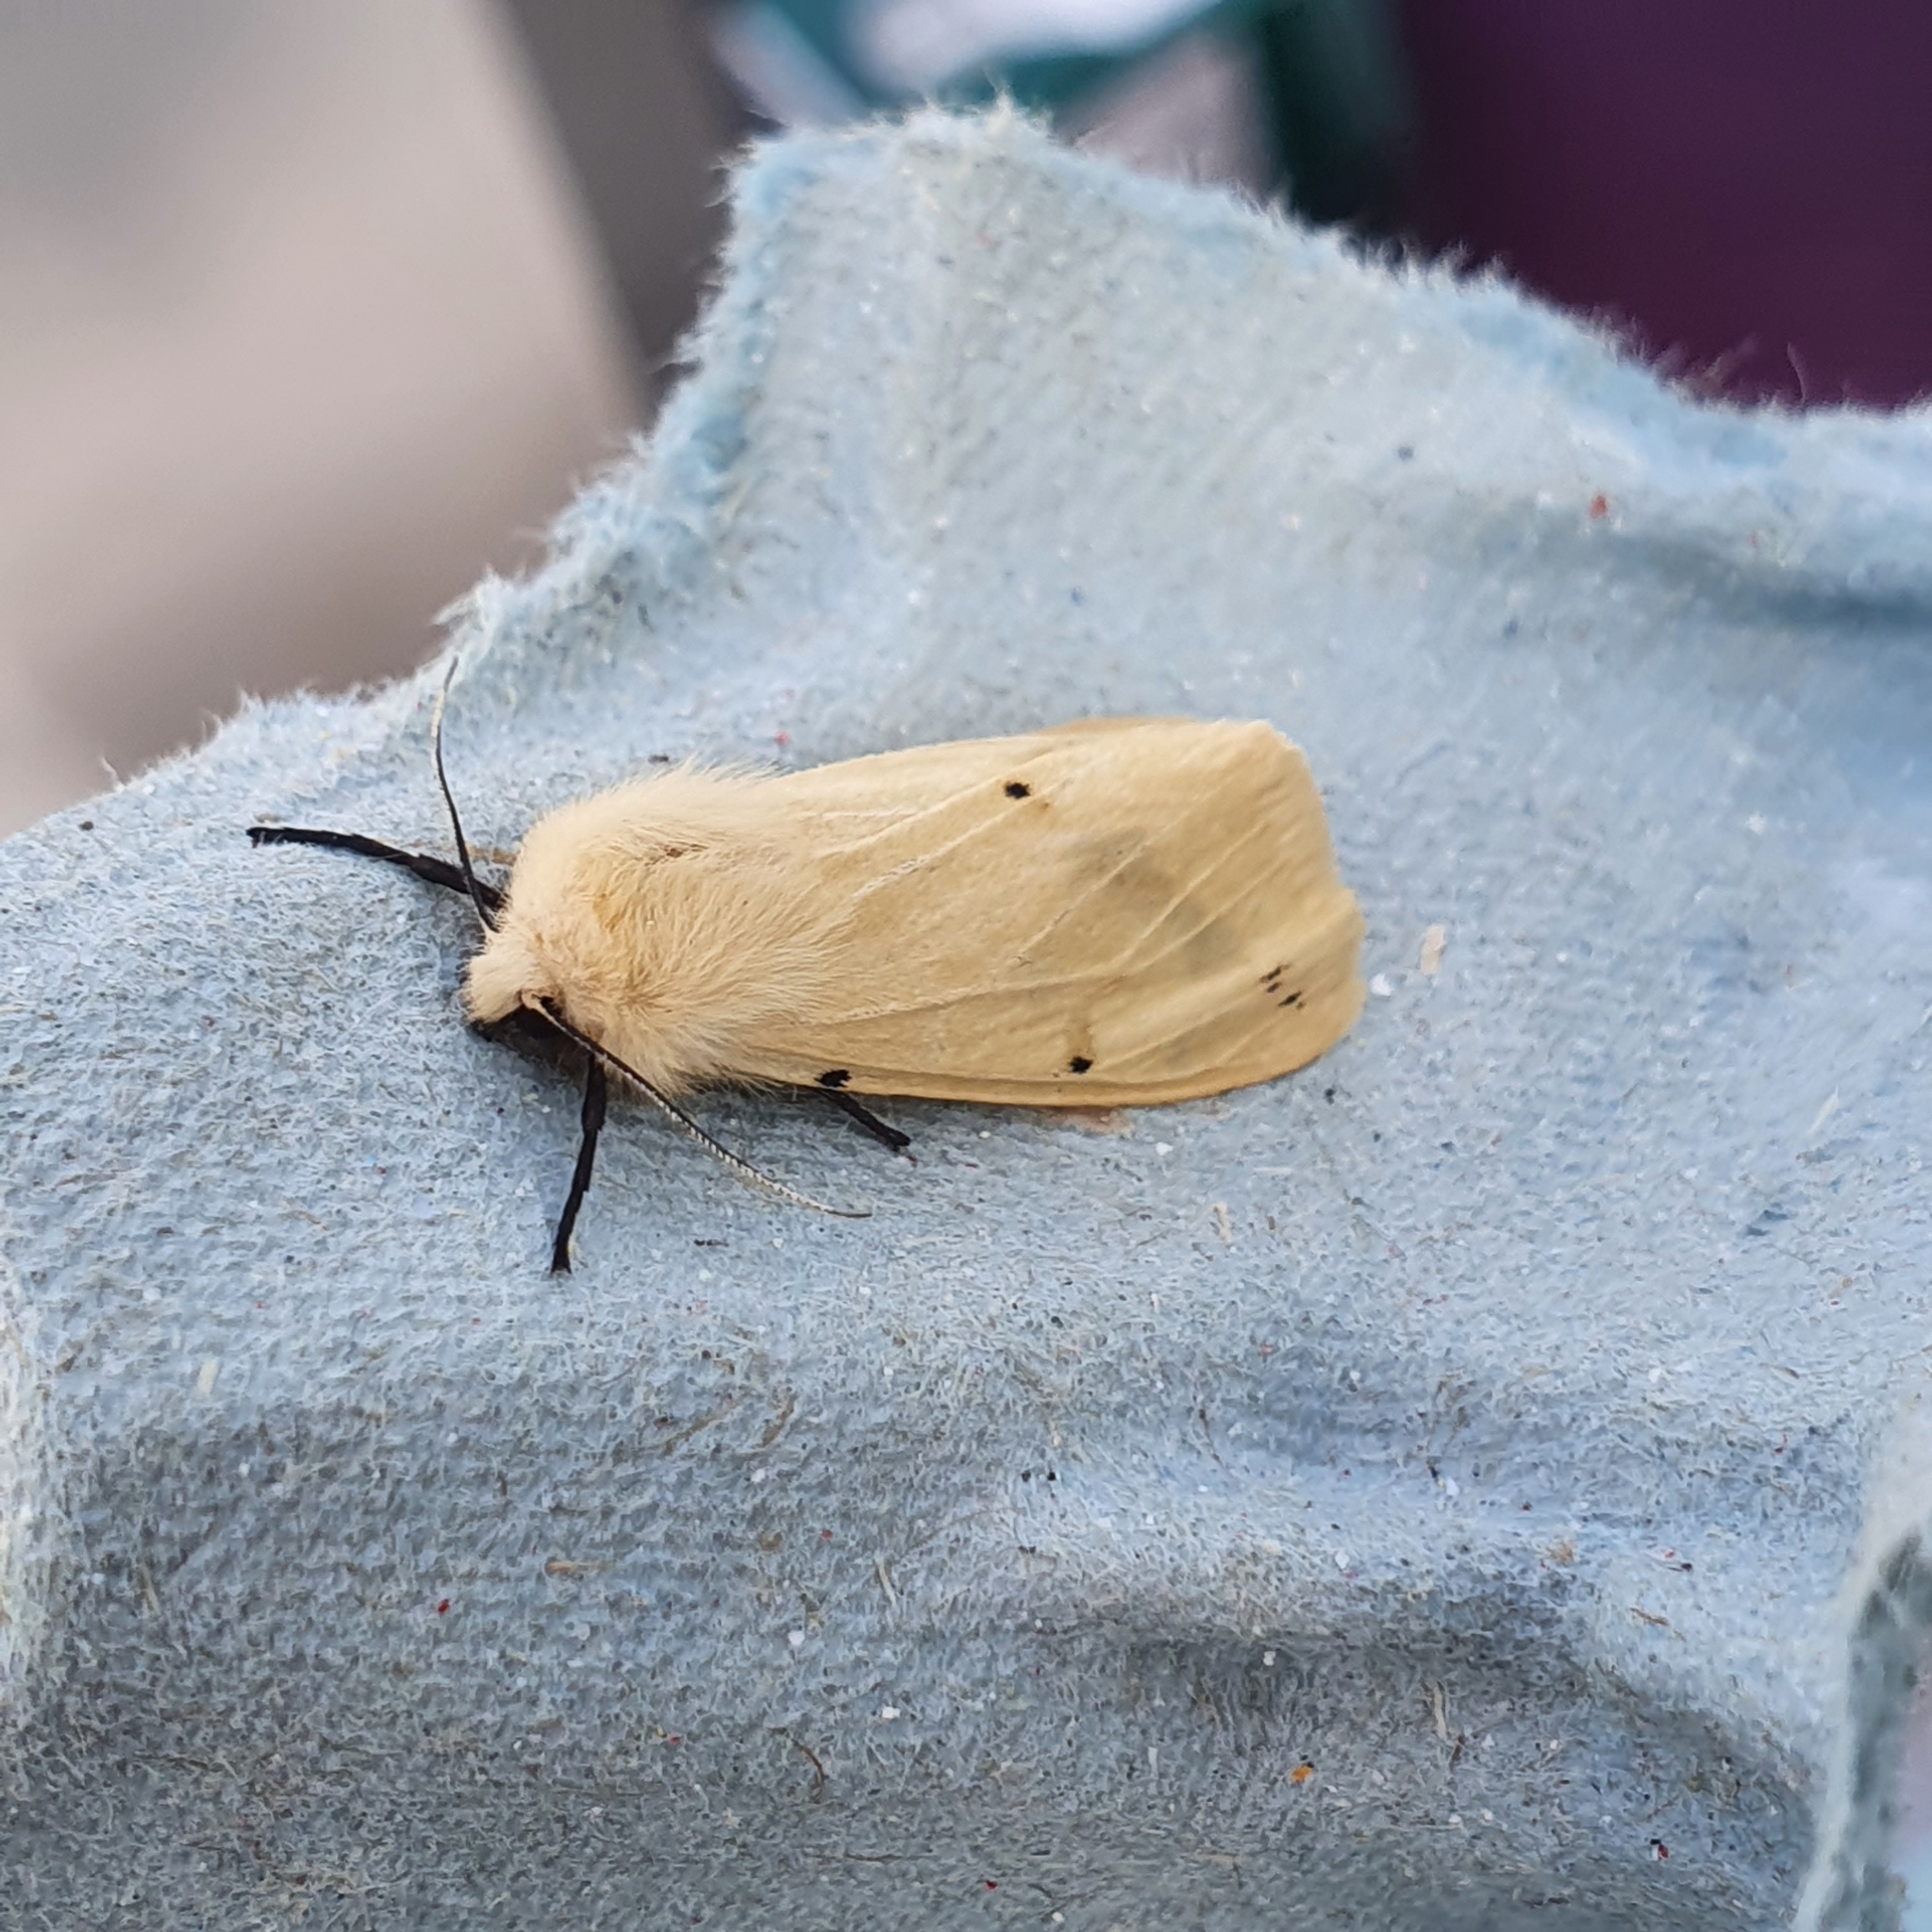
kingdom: Animalia
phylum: Arthropoda
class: Insecta
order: Lepidoptera
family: Erebidae
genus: Spilarctia
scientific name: Spilarctia lutea
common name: Buff ermine
